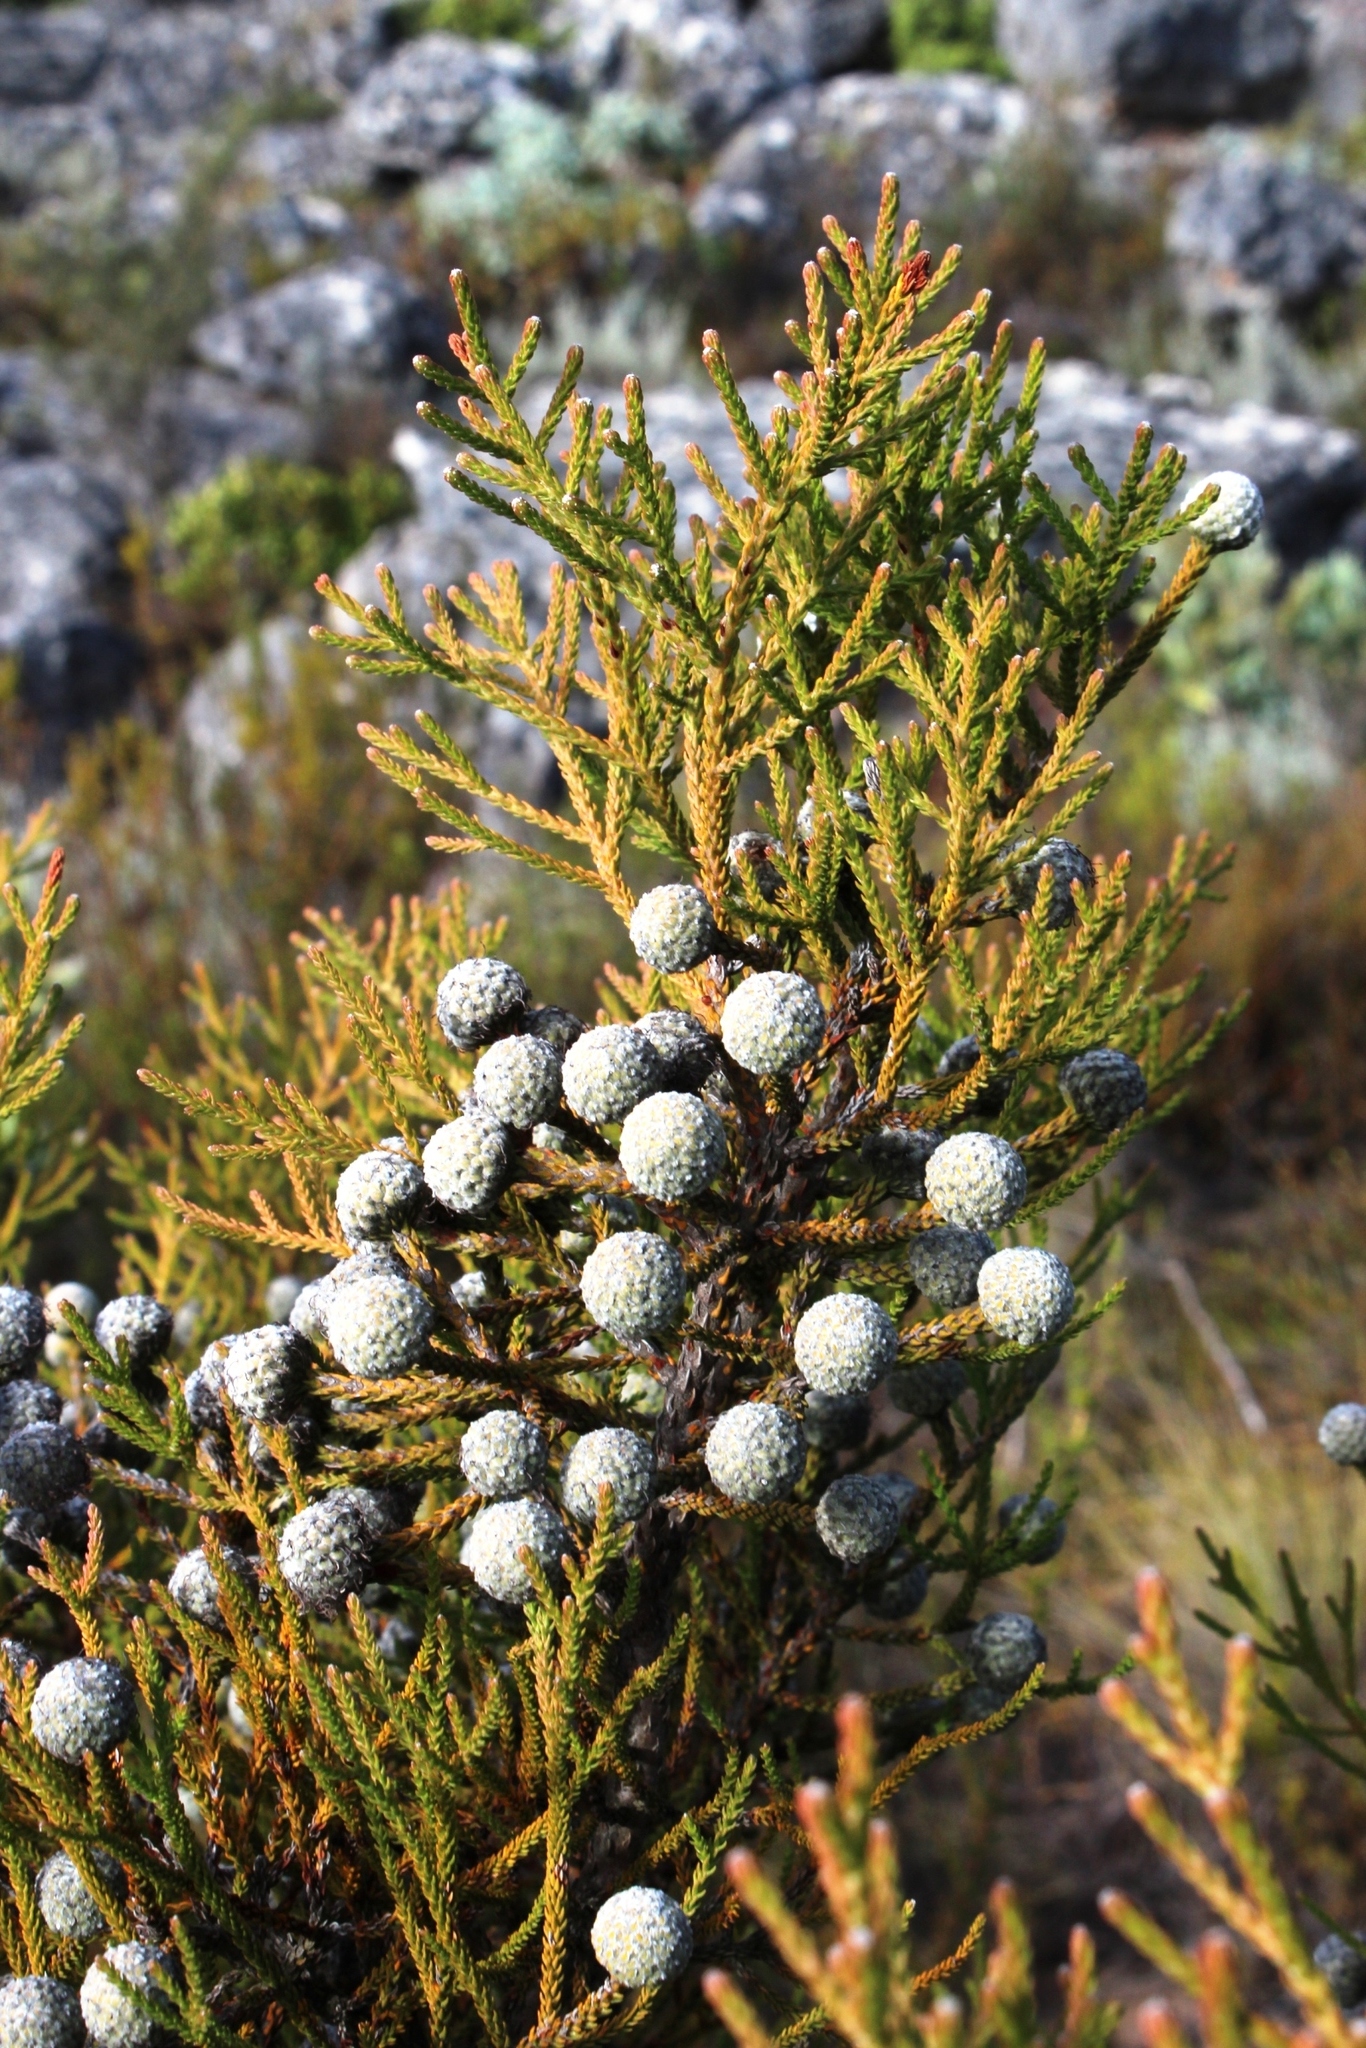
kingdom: Plantae
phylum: Tracheophyta
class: Magnoliopsida
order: Bruniales
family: Bruniaceae
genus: Brunia
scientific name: Brunia noduliflora
